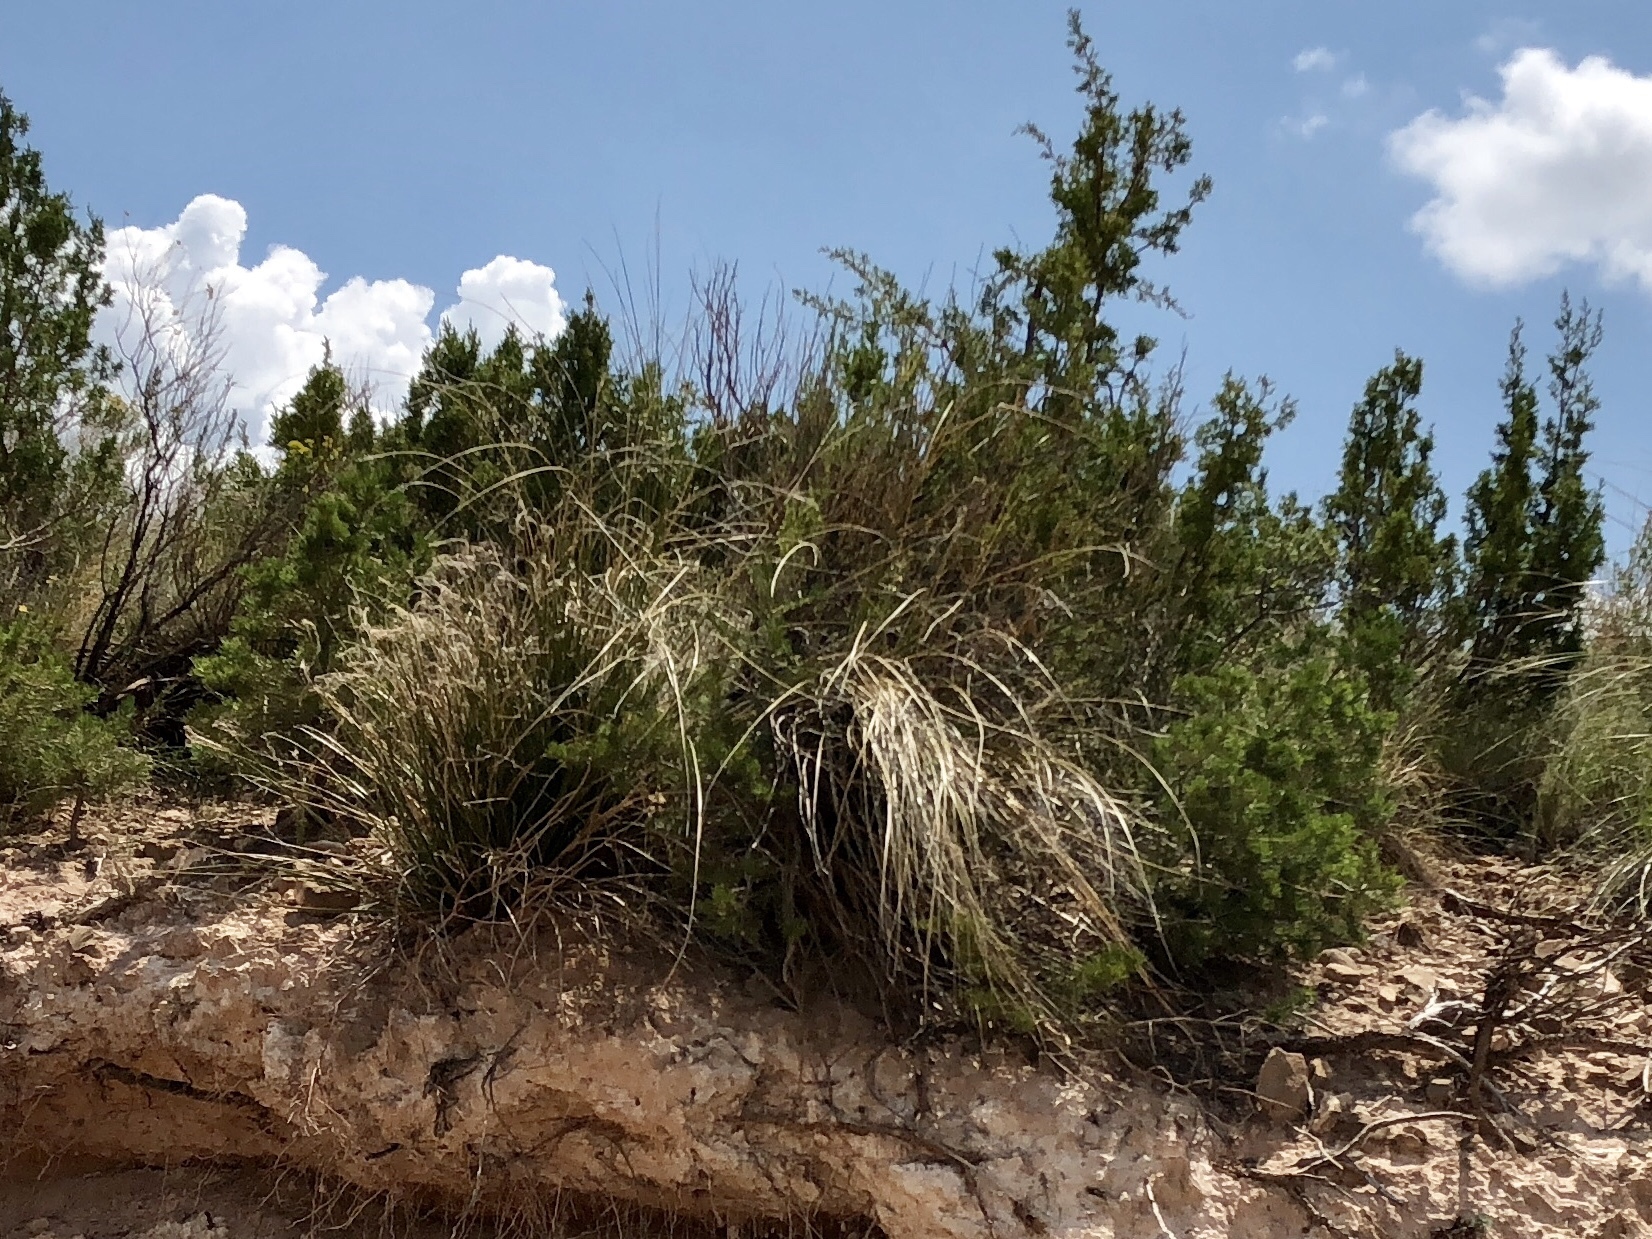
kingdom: Plantae
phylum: Tracheophyta
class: Liliopsida
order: Asparagales
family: Asparagaceae
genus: Nolina
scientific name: Nolina microcarpa
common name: Bear-grass
